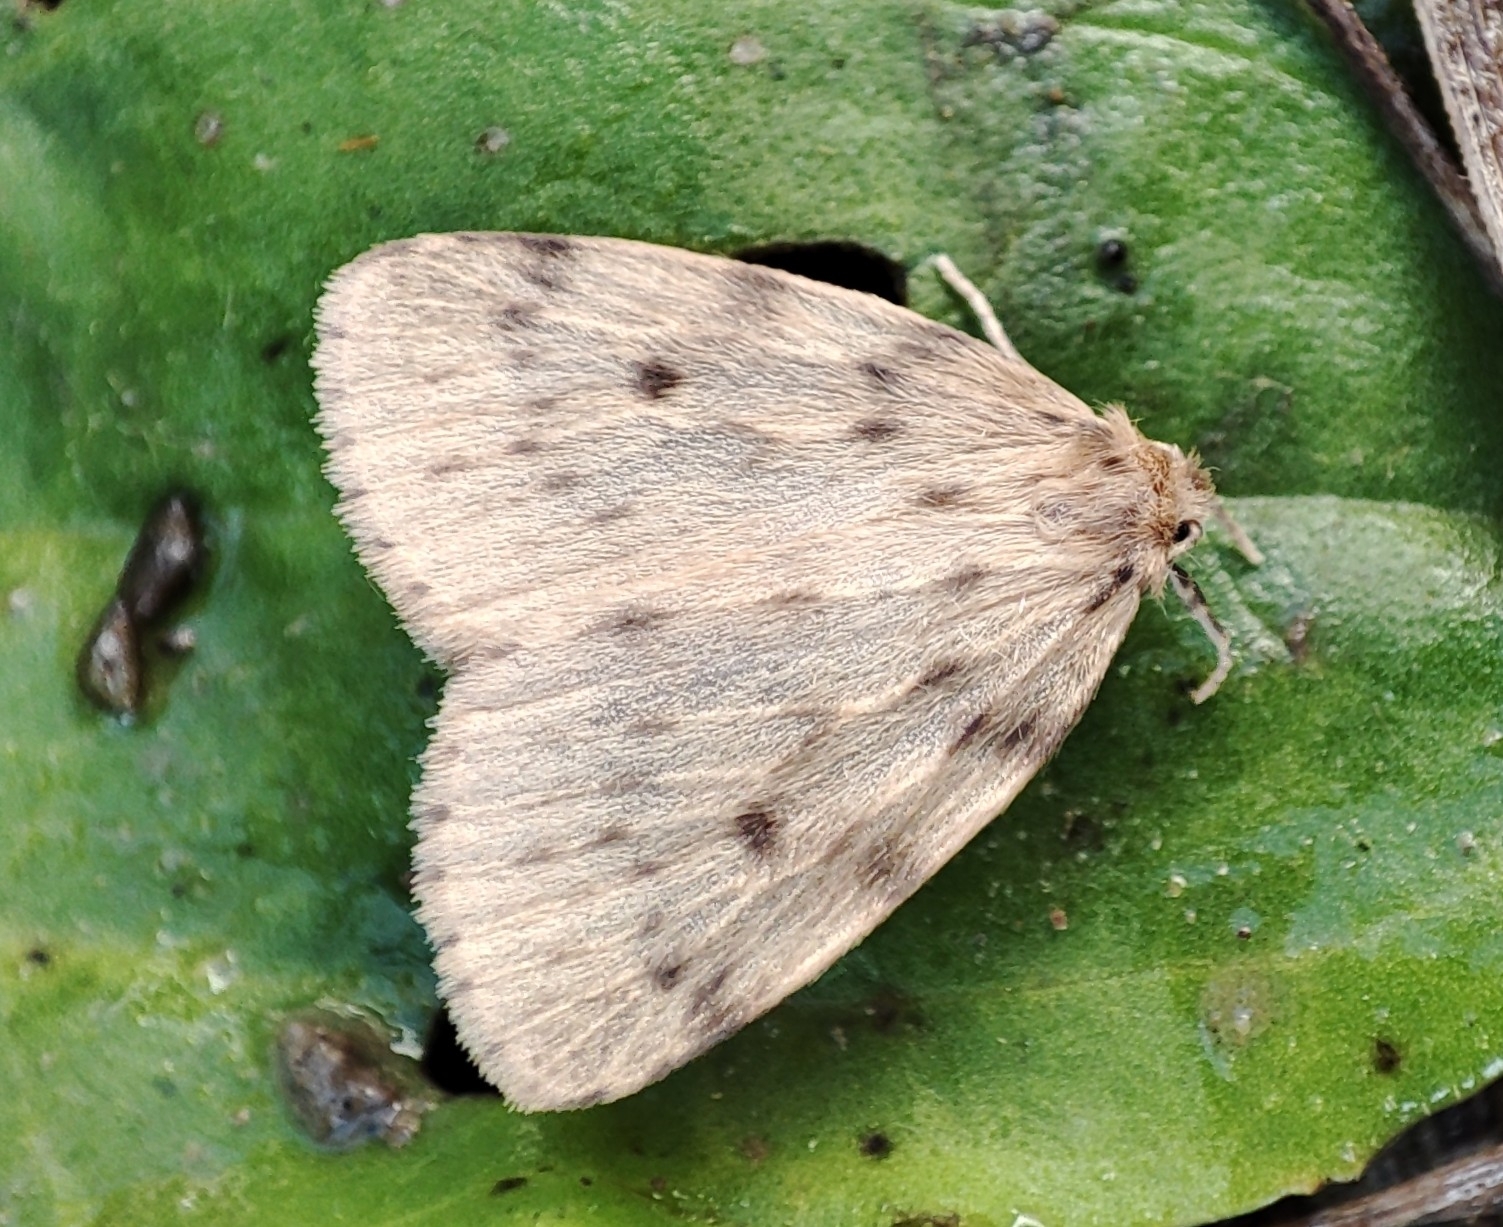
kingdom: Animalia
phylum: Arthropoda
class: Insecta
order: Lepidoptera
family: Erebidae
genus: Thumatha
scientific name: Thumatha senex
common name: Round-winged muslin
